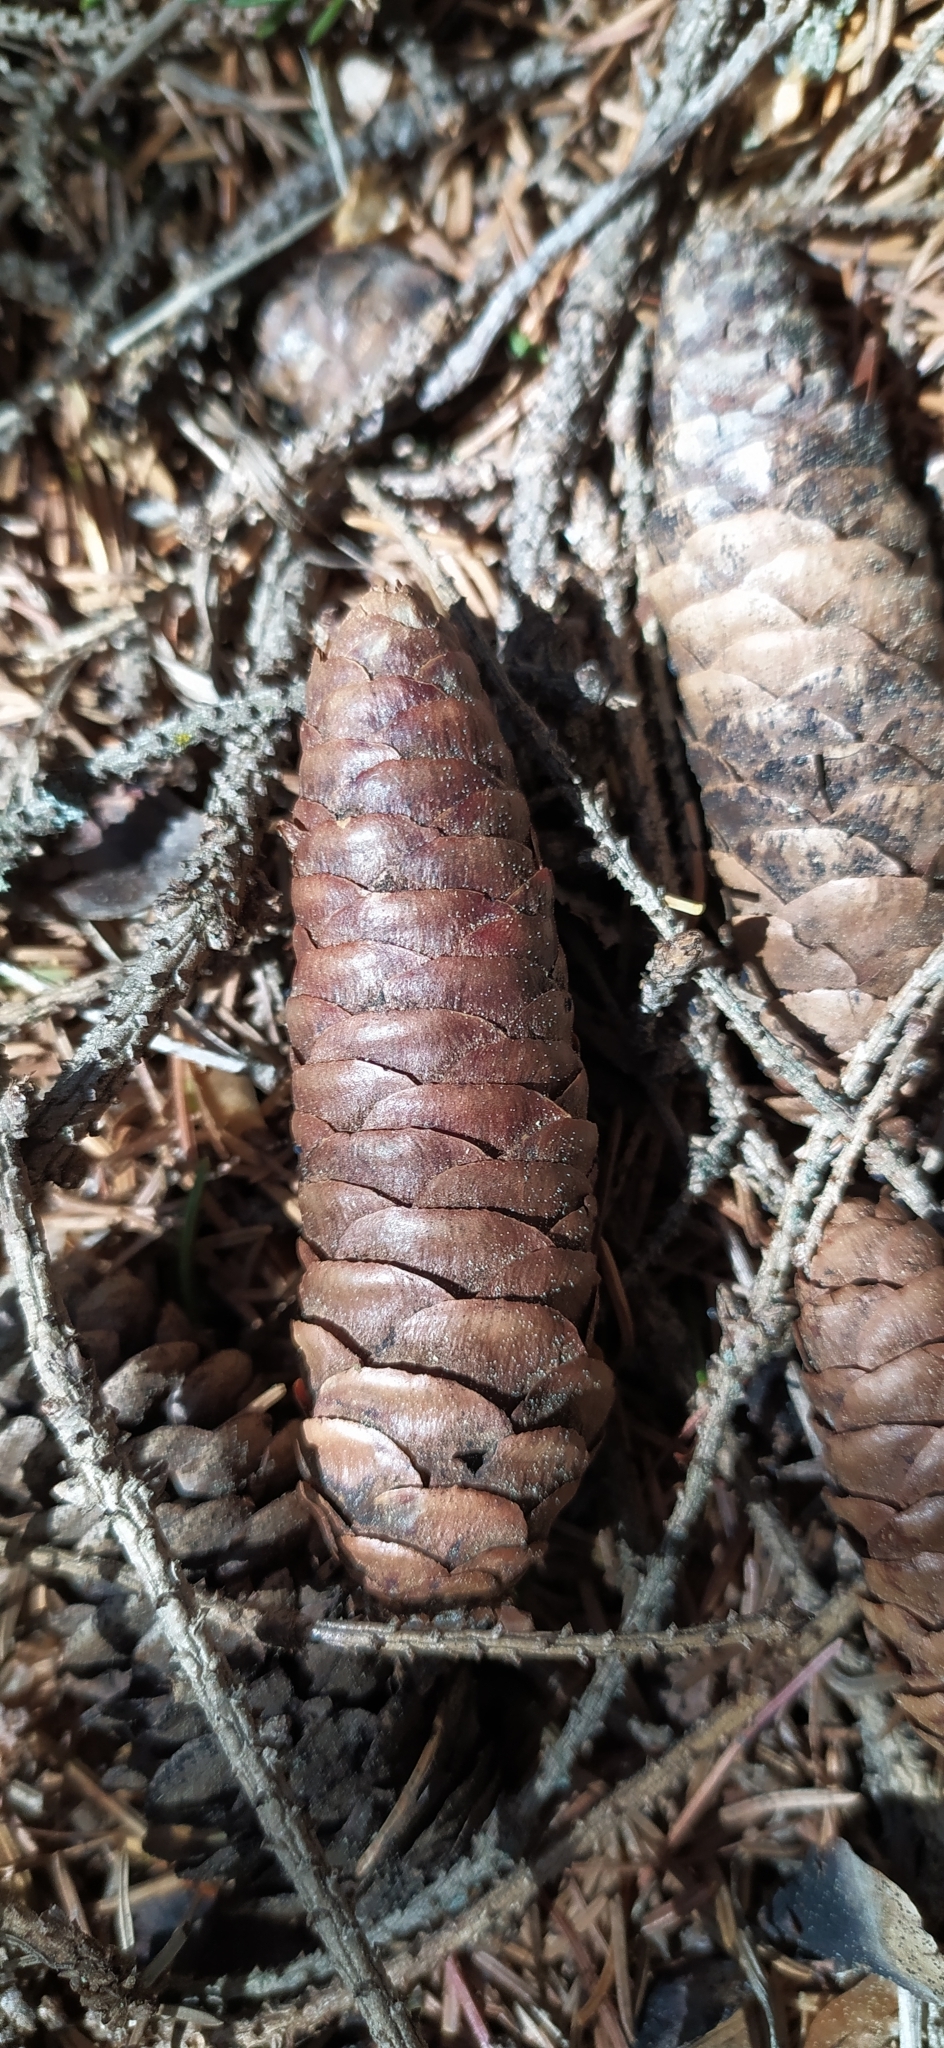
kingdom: Plantae
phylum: Tracheophyta
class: Pinopsida
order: Pinales
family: Pinaceae
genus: Picea
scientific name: Picea obovata
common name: Siberian spruce
